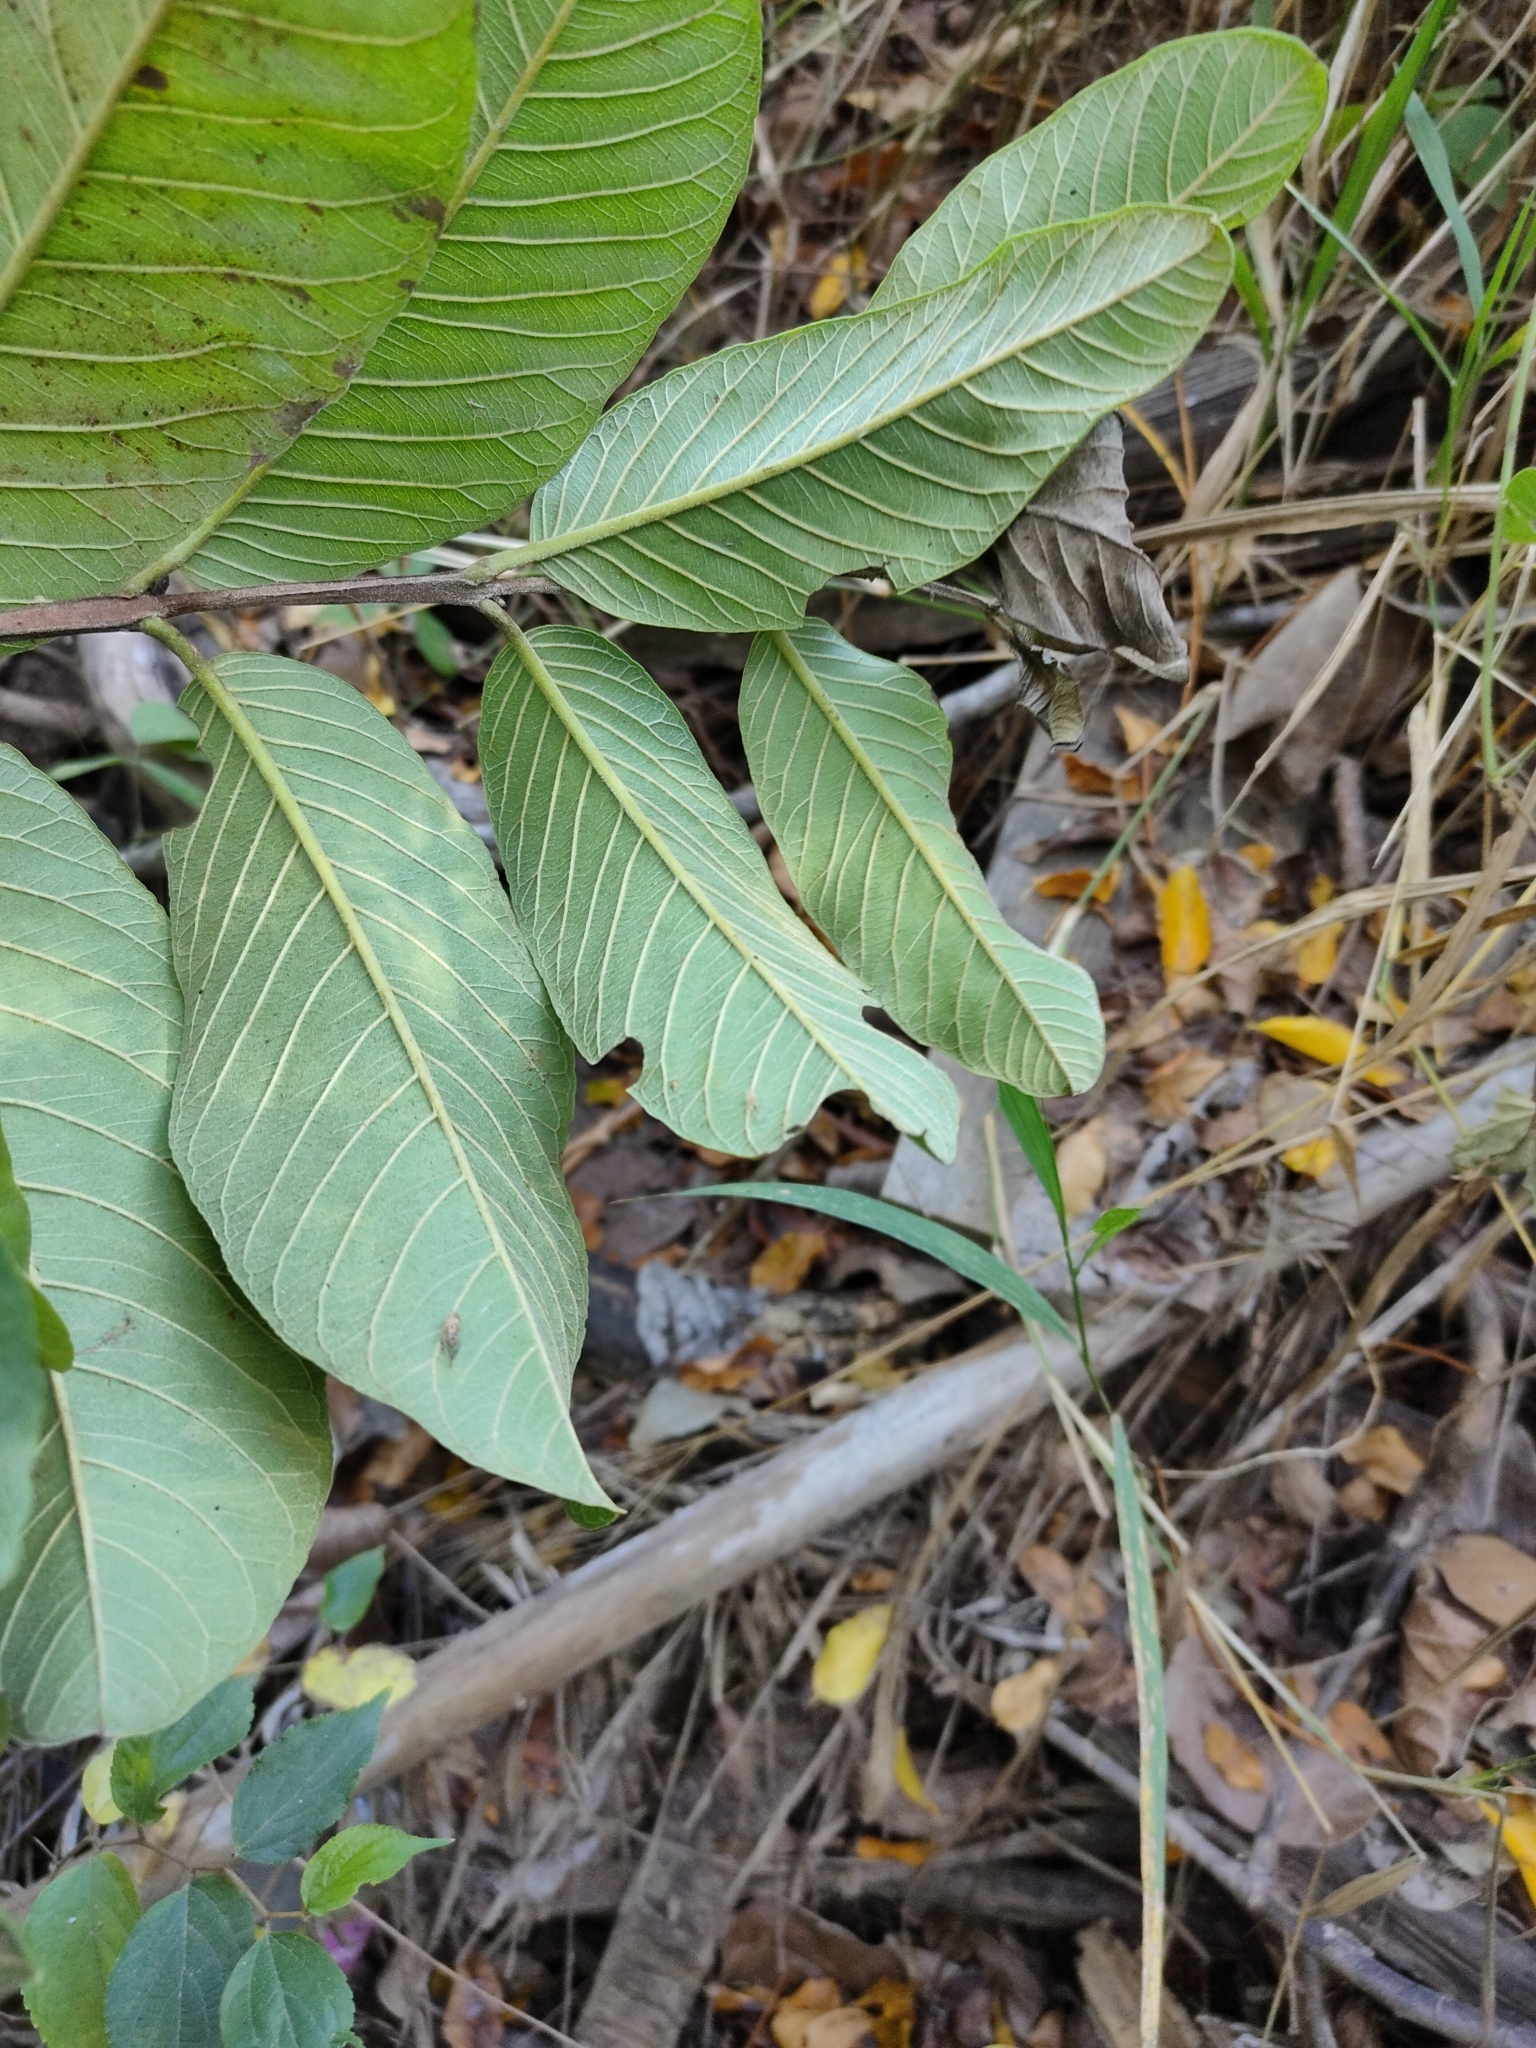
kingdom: Plantae
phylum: Tracheophyta
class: Magnoliopsida
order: Myrtales
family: Myrtaceae
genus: Psidium
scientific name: Psidium guajava
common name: Guava
